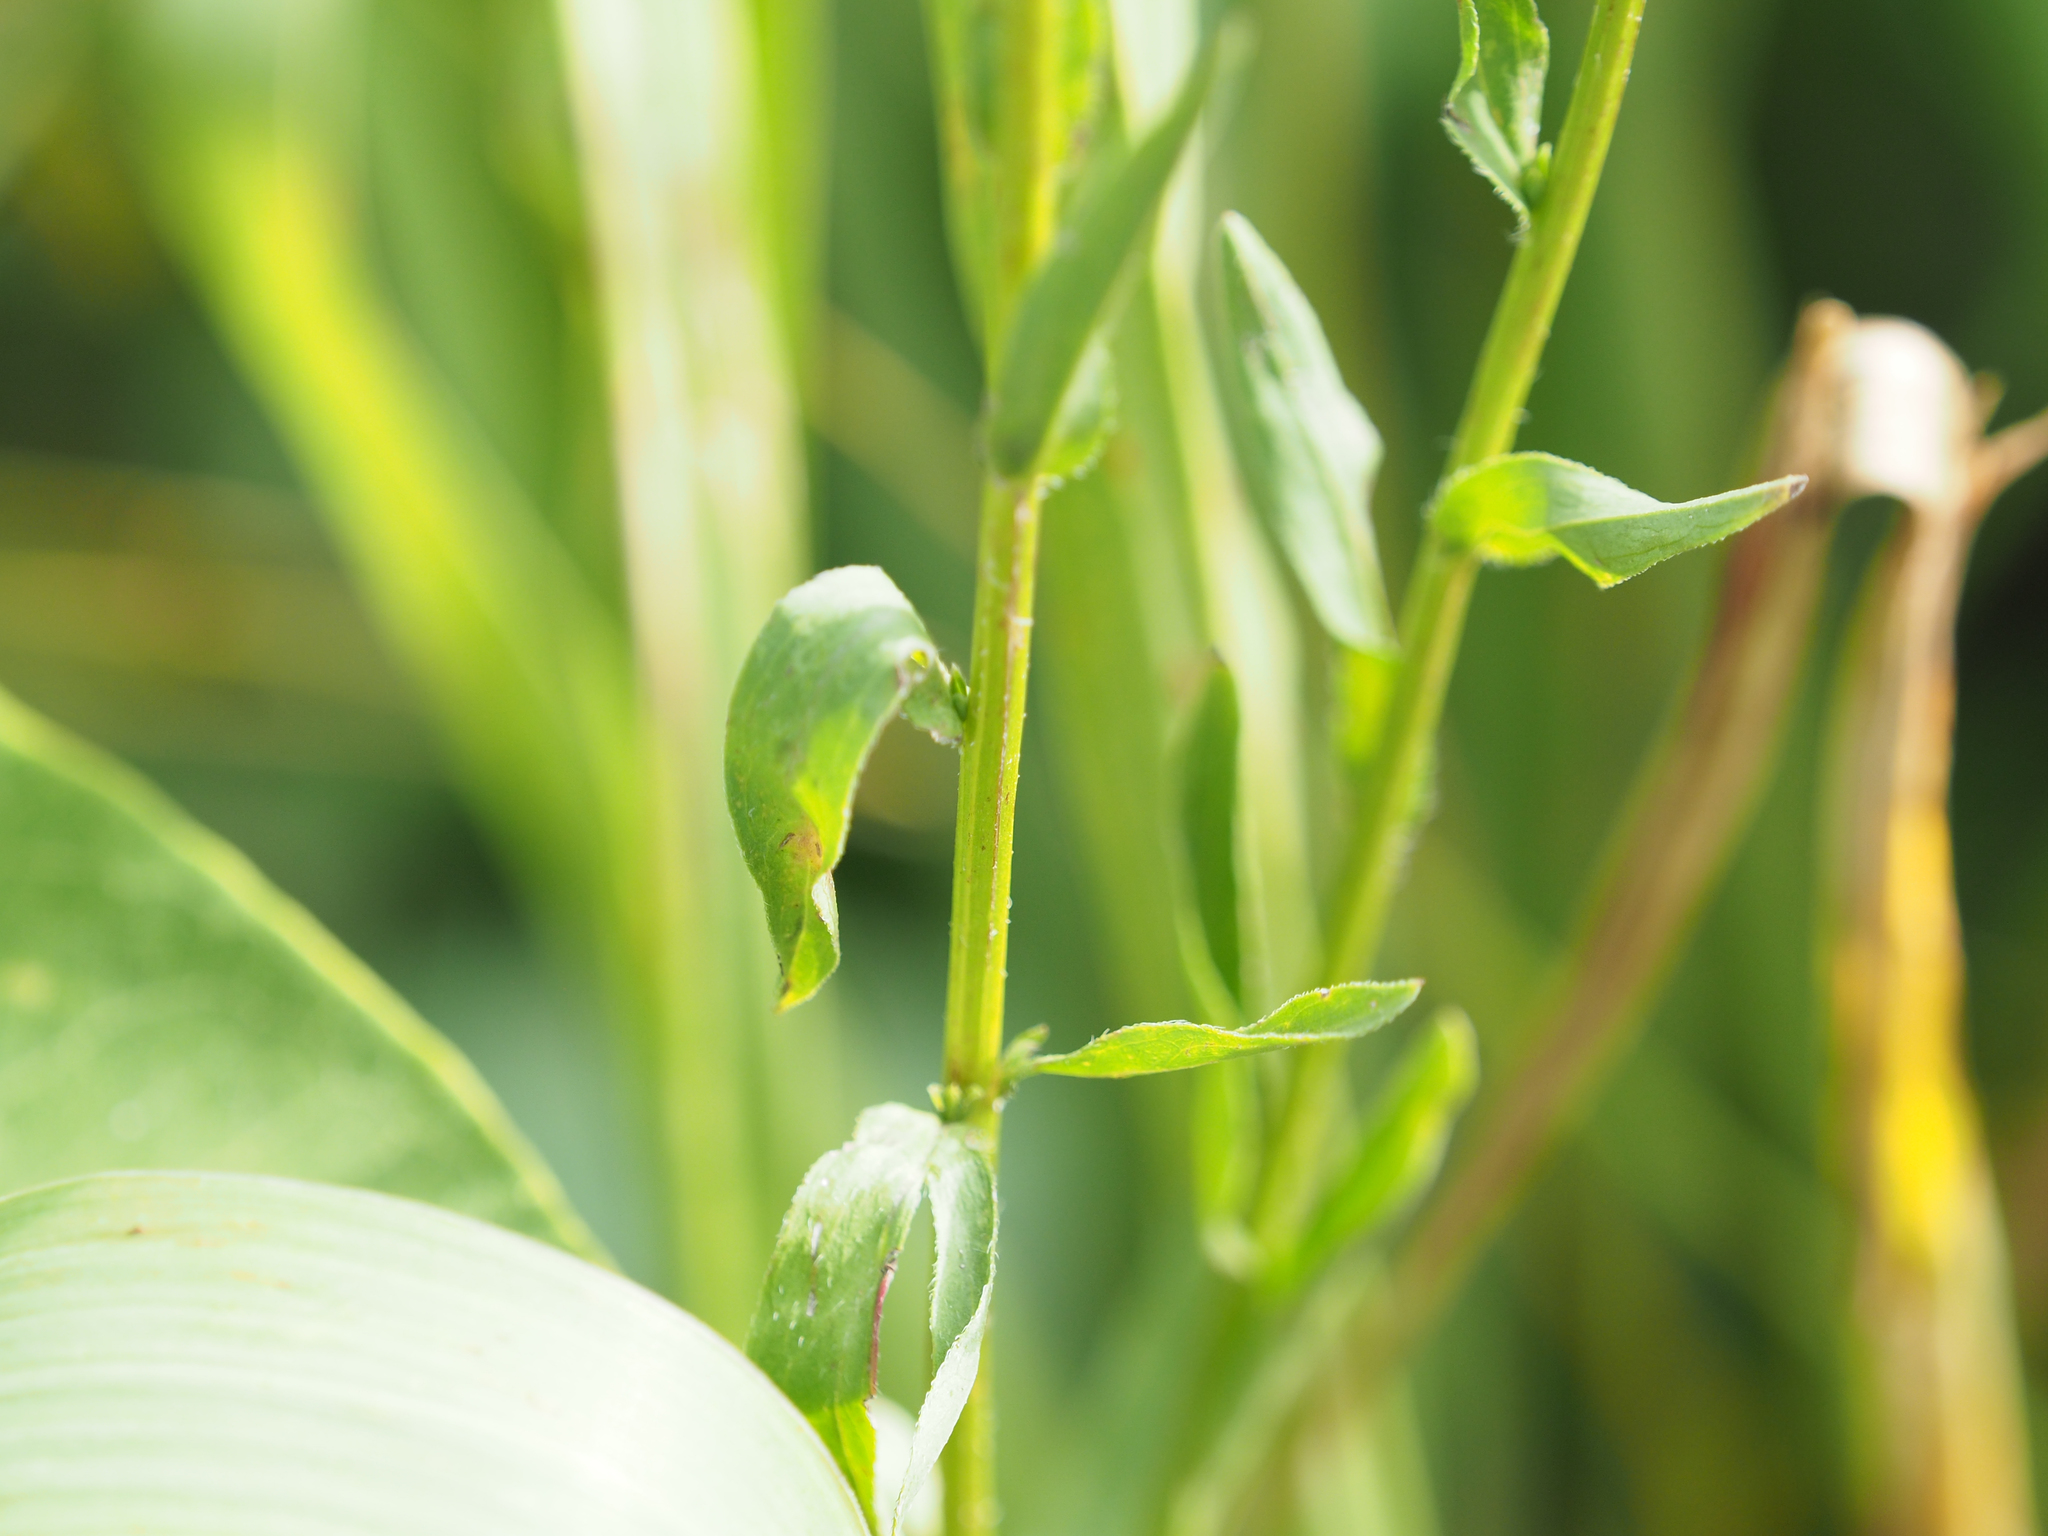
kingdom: Plantae
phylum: Tracheophyta
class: Magnoliopsida
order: Asterales
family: Asteraceae
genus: Erigeron
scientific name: Erigeron strigosus
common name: Common eastern fleabane
